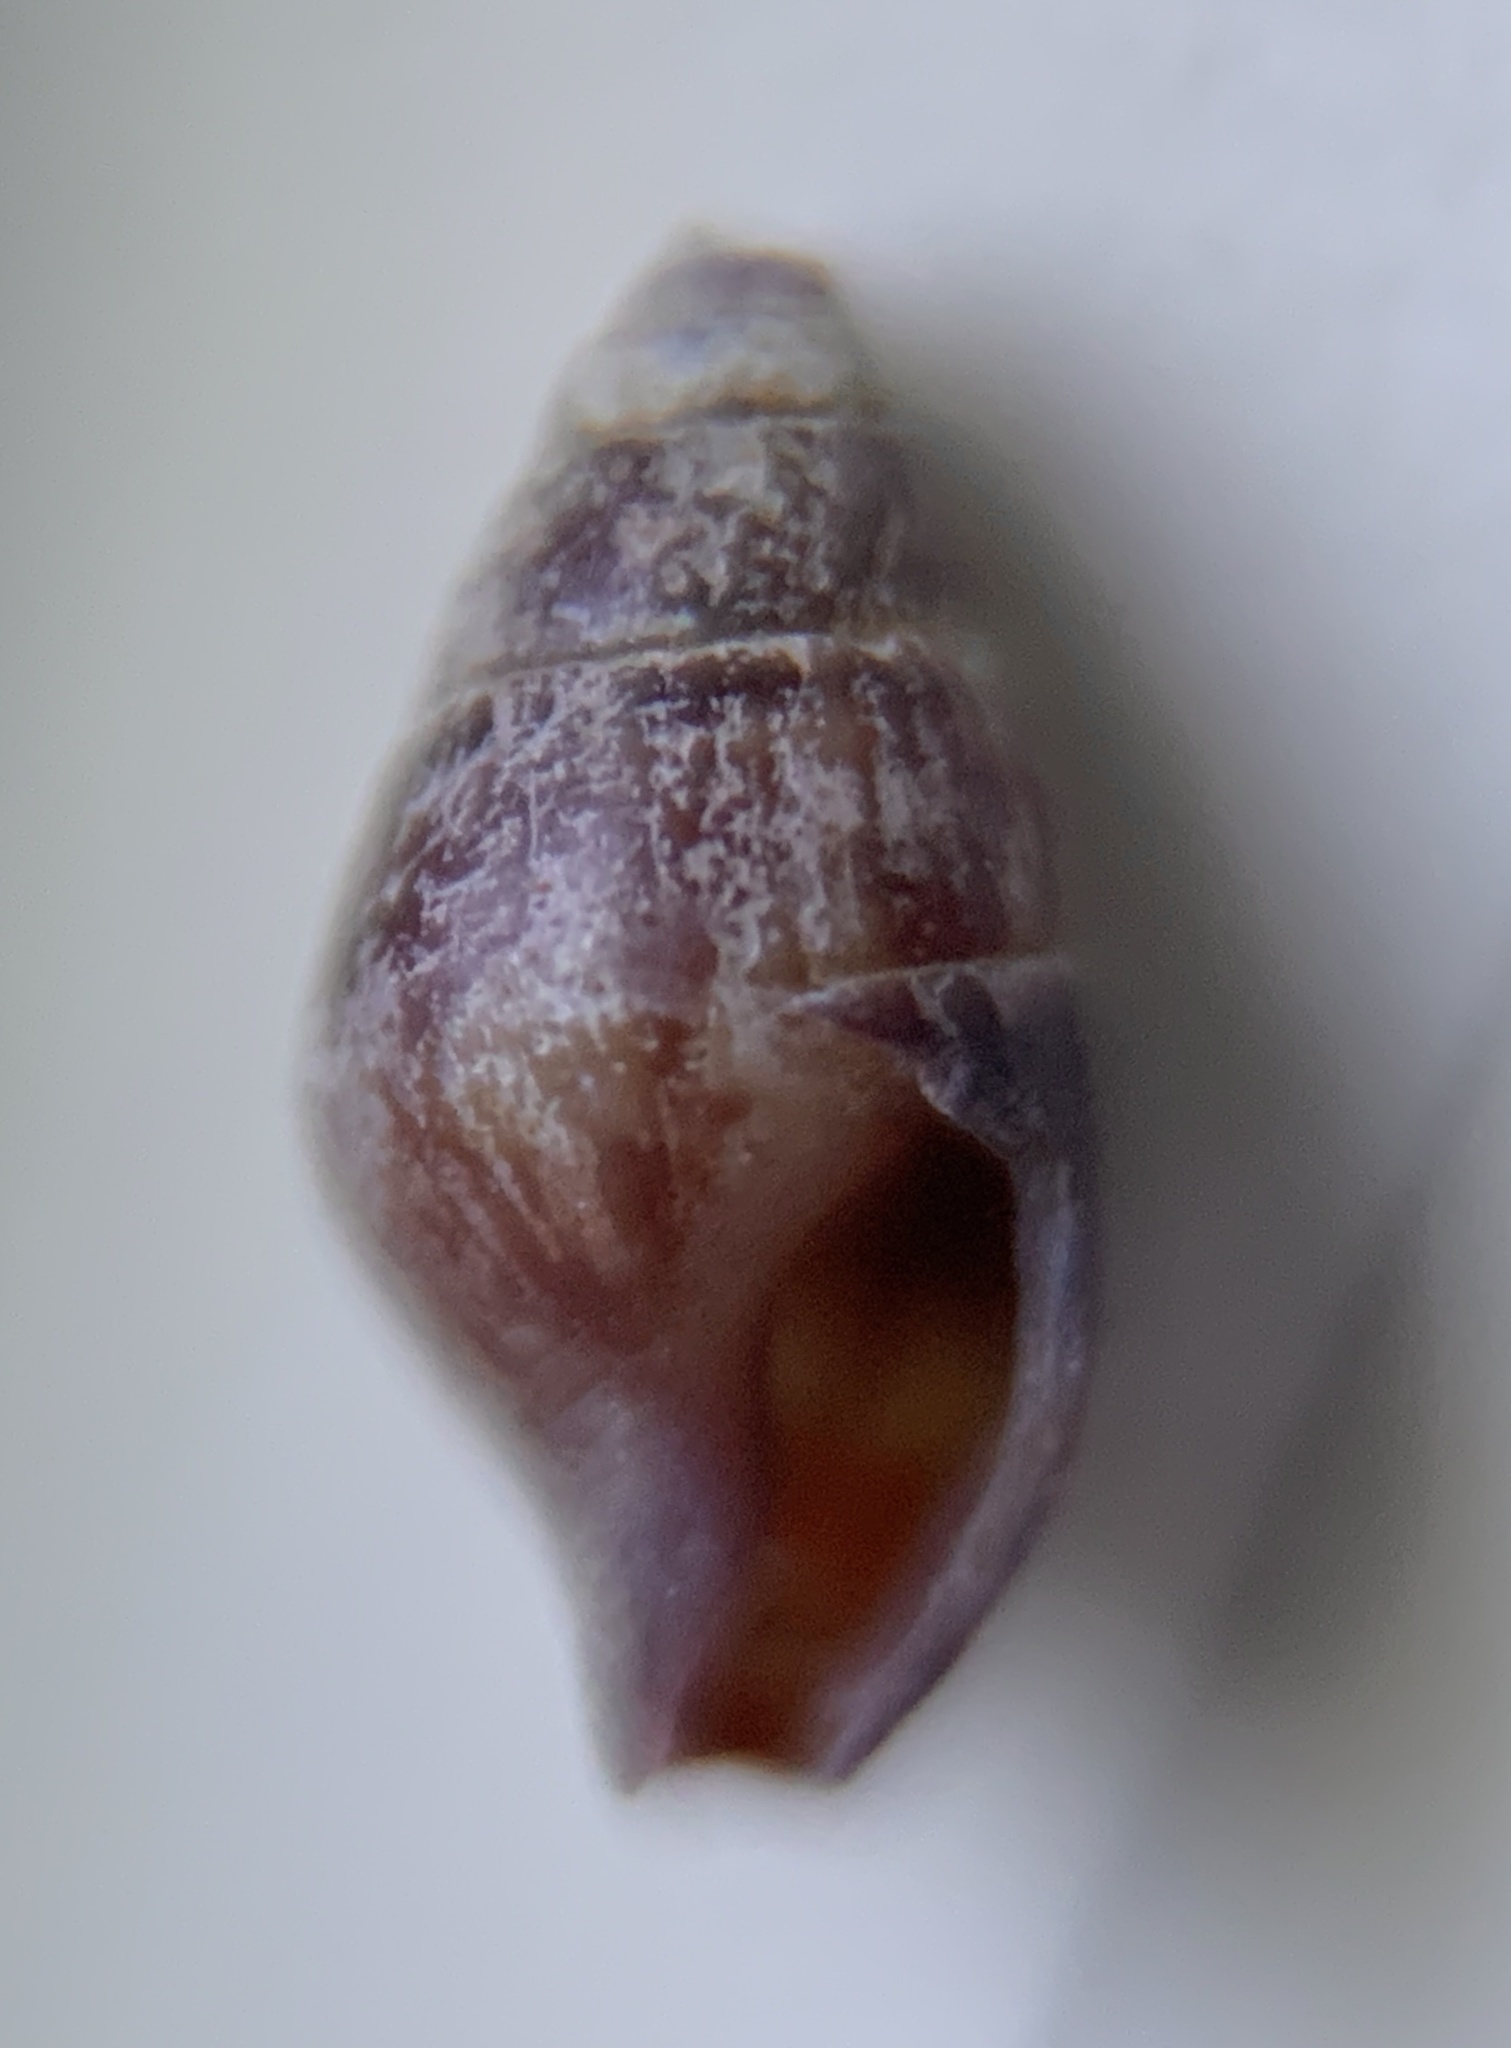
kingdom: Animalia
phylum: Mollusca
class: Gastropoda
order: Neogastropoda
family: Columbellidae
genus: Astyris
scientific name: Astyris lunata
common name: Lunar dovesnail
